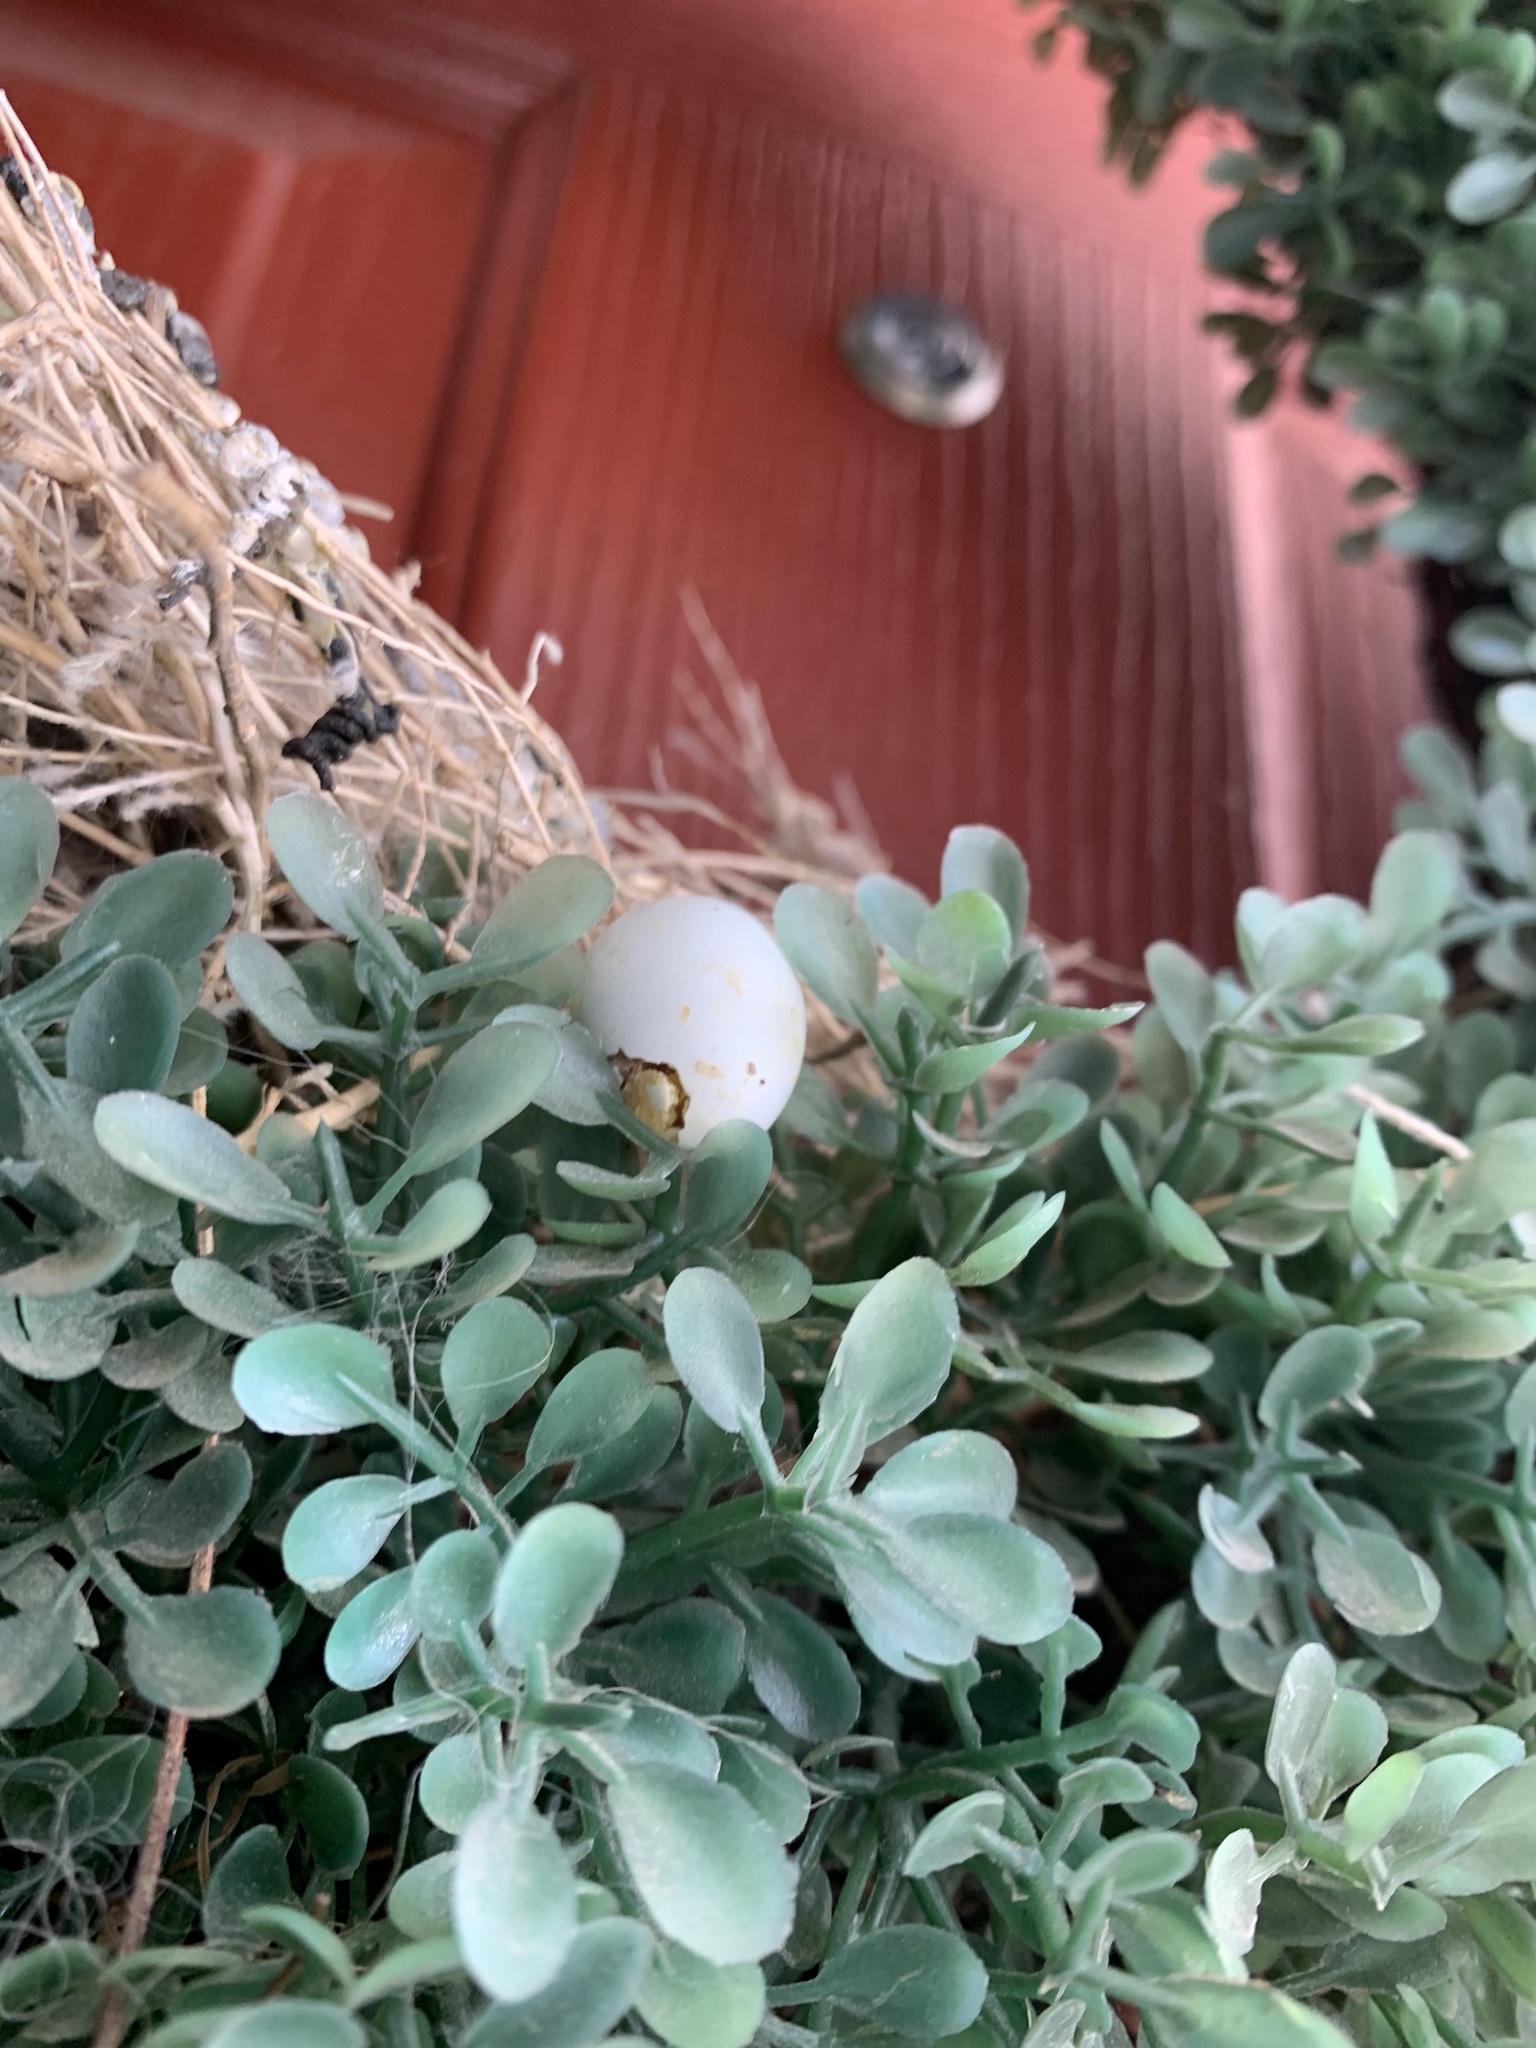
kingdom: Animalia
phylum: Chordata
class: Aves
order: Passeriformes
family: Icteridae
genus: Molothrus
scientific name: Molothrus ater
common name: Brown-headed cowbird
